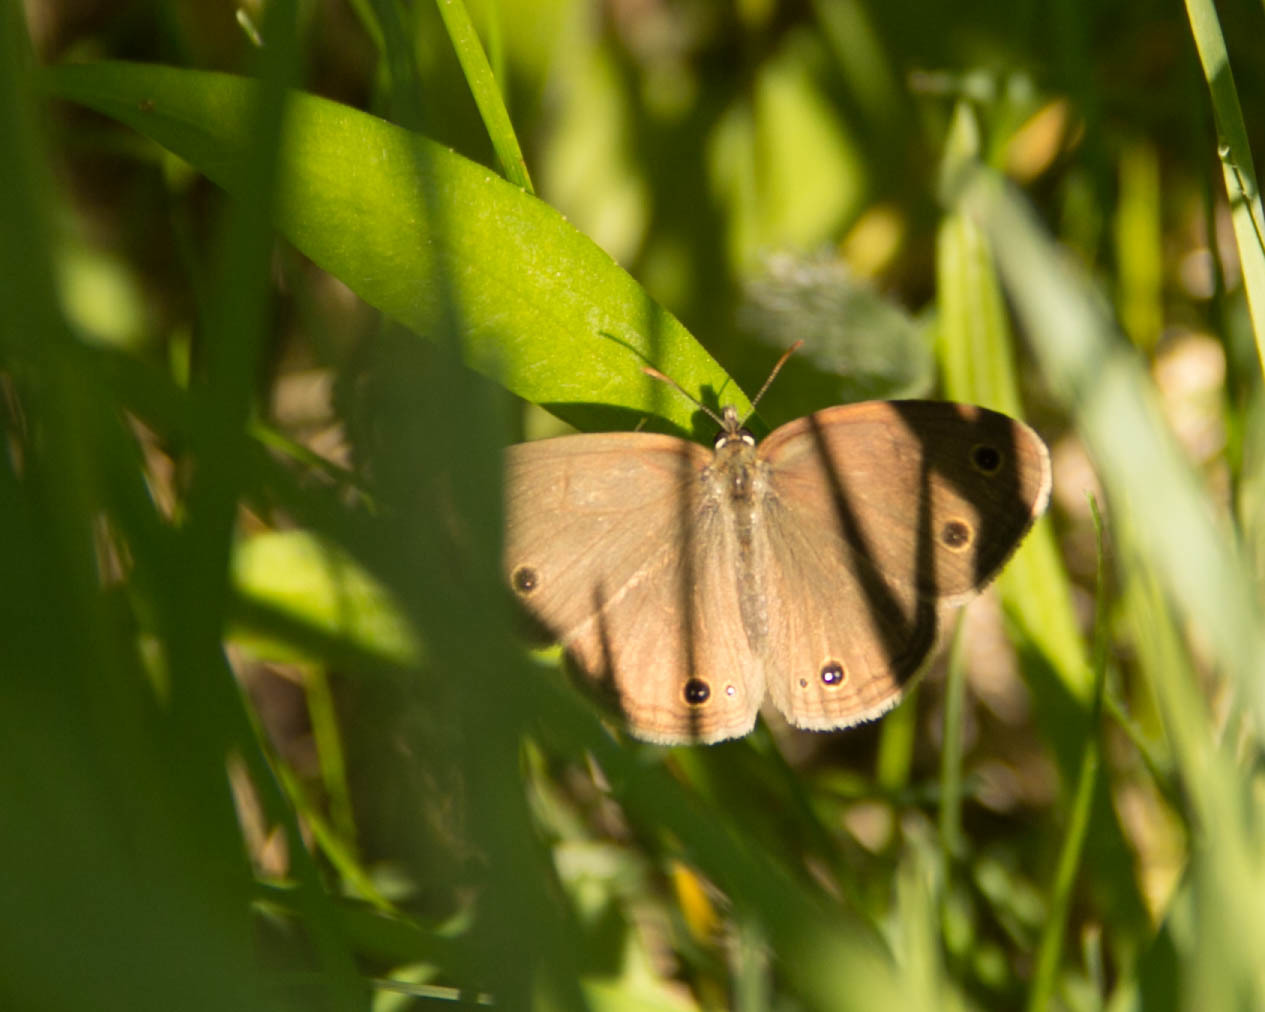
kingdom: Animalia
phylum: Arthropoda
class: Insecta
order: Lepidoptera
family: Nymphalidae
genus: Euptychia
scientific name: Euptychia cymela
